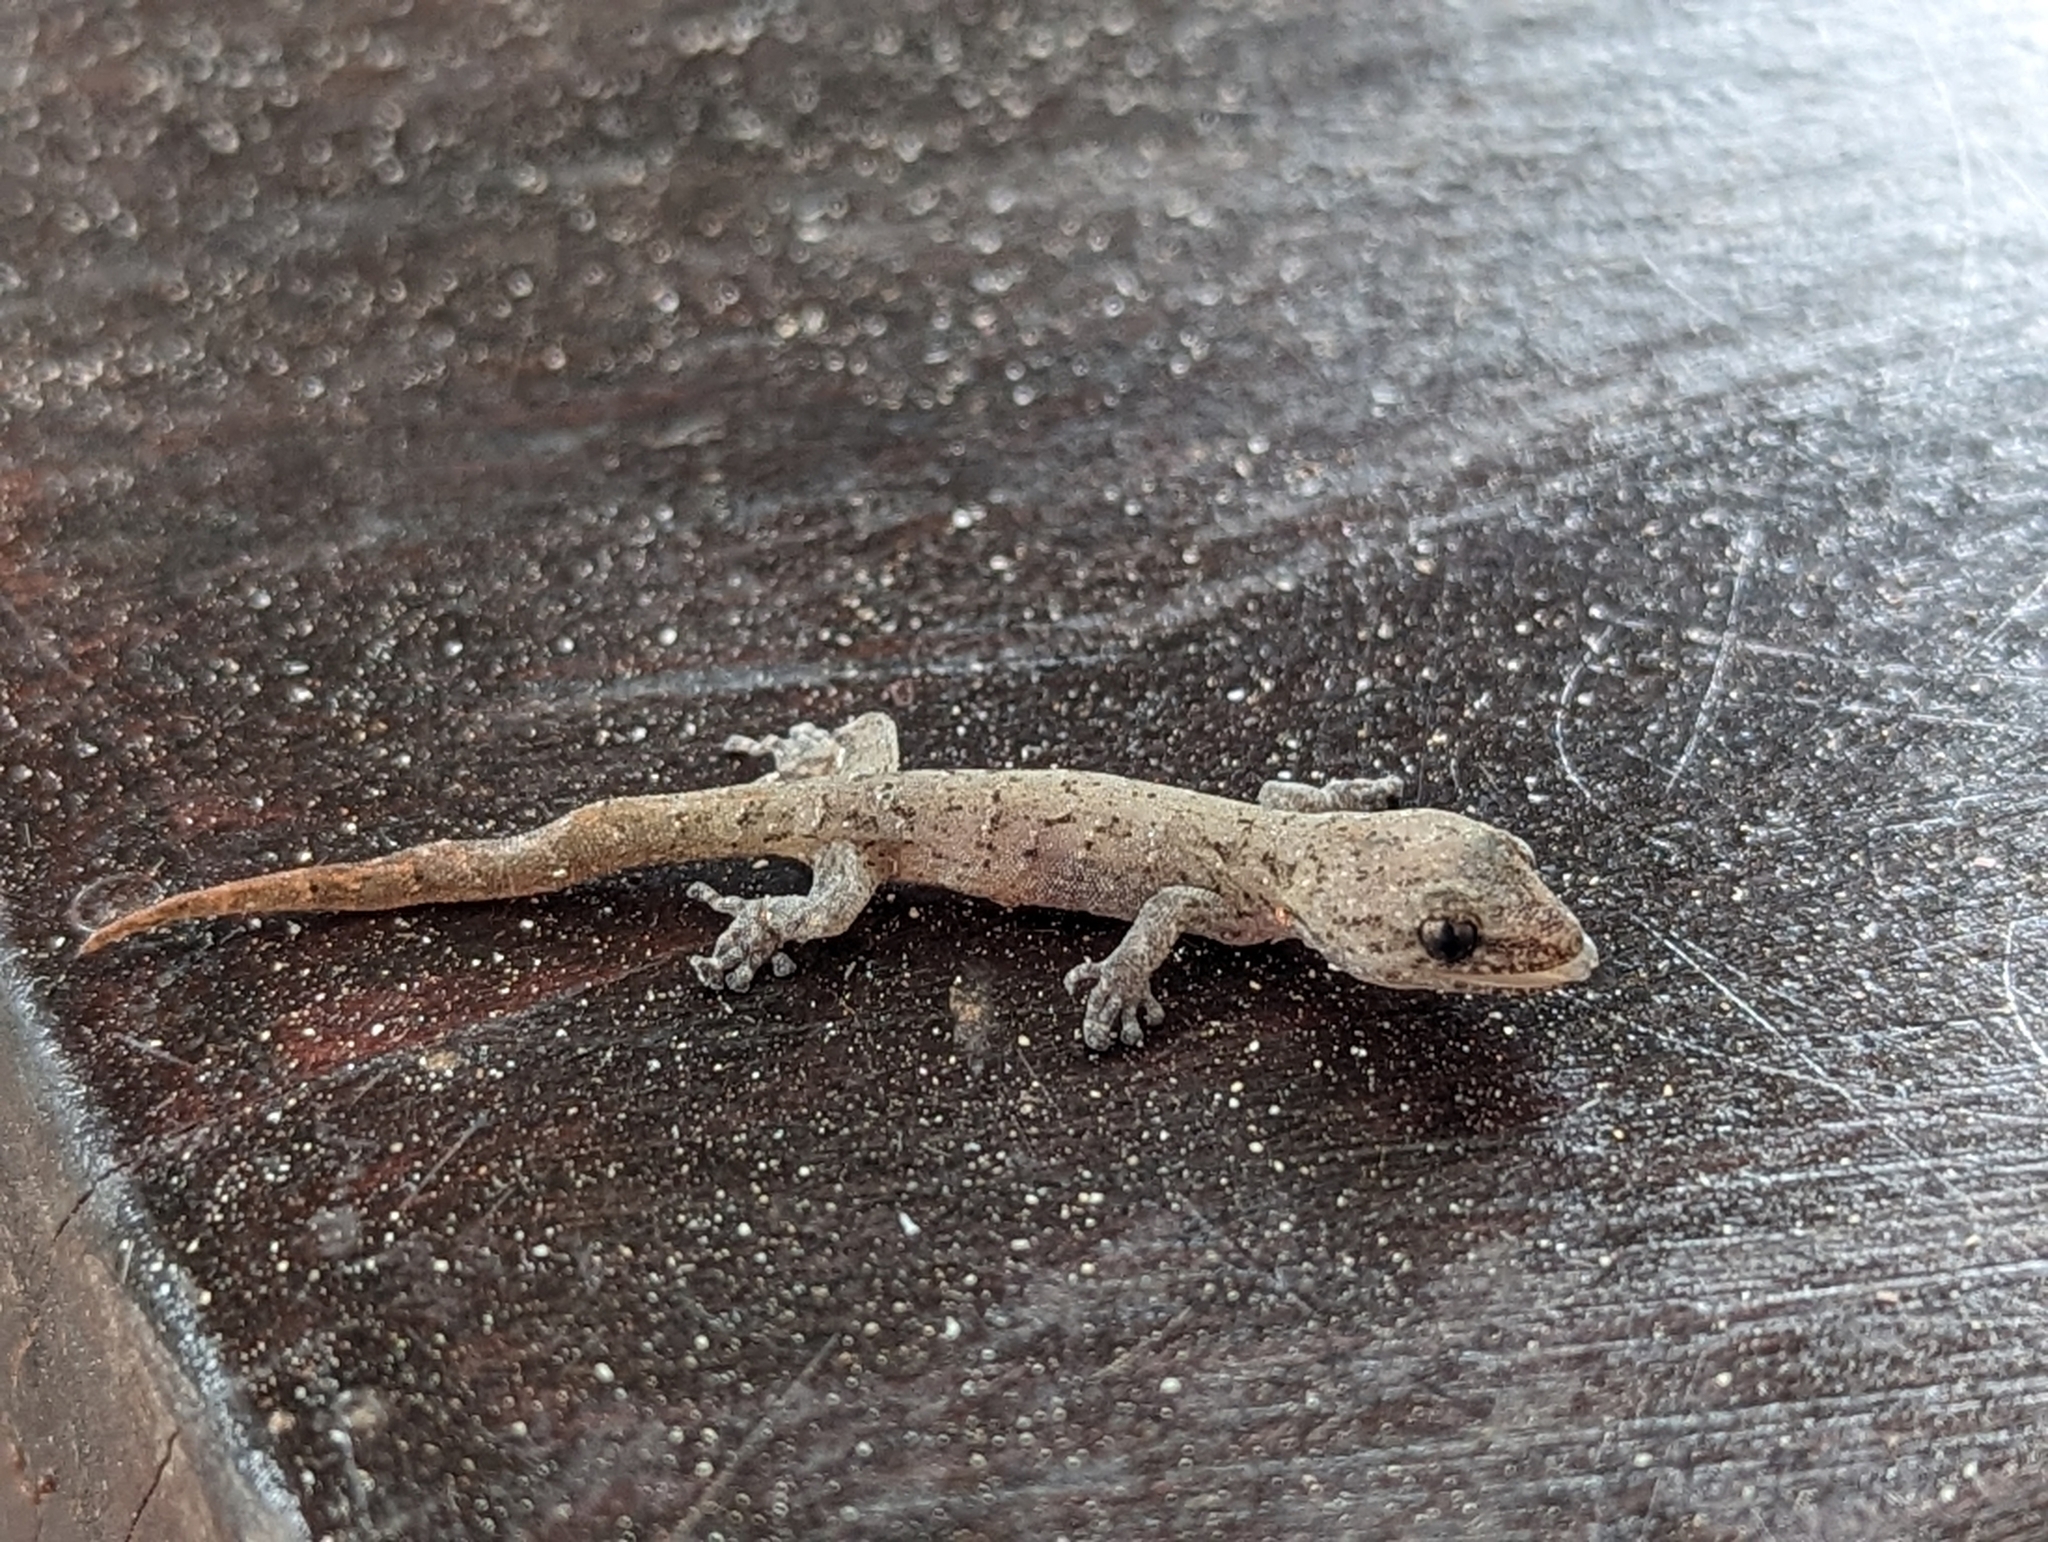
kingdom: Animalia
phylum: Chordata
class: Squamata
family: Gekkonidae
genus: Afrogecko
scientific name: Afrogecko porphyreus
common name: Marbled leaf-toed gecko
